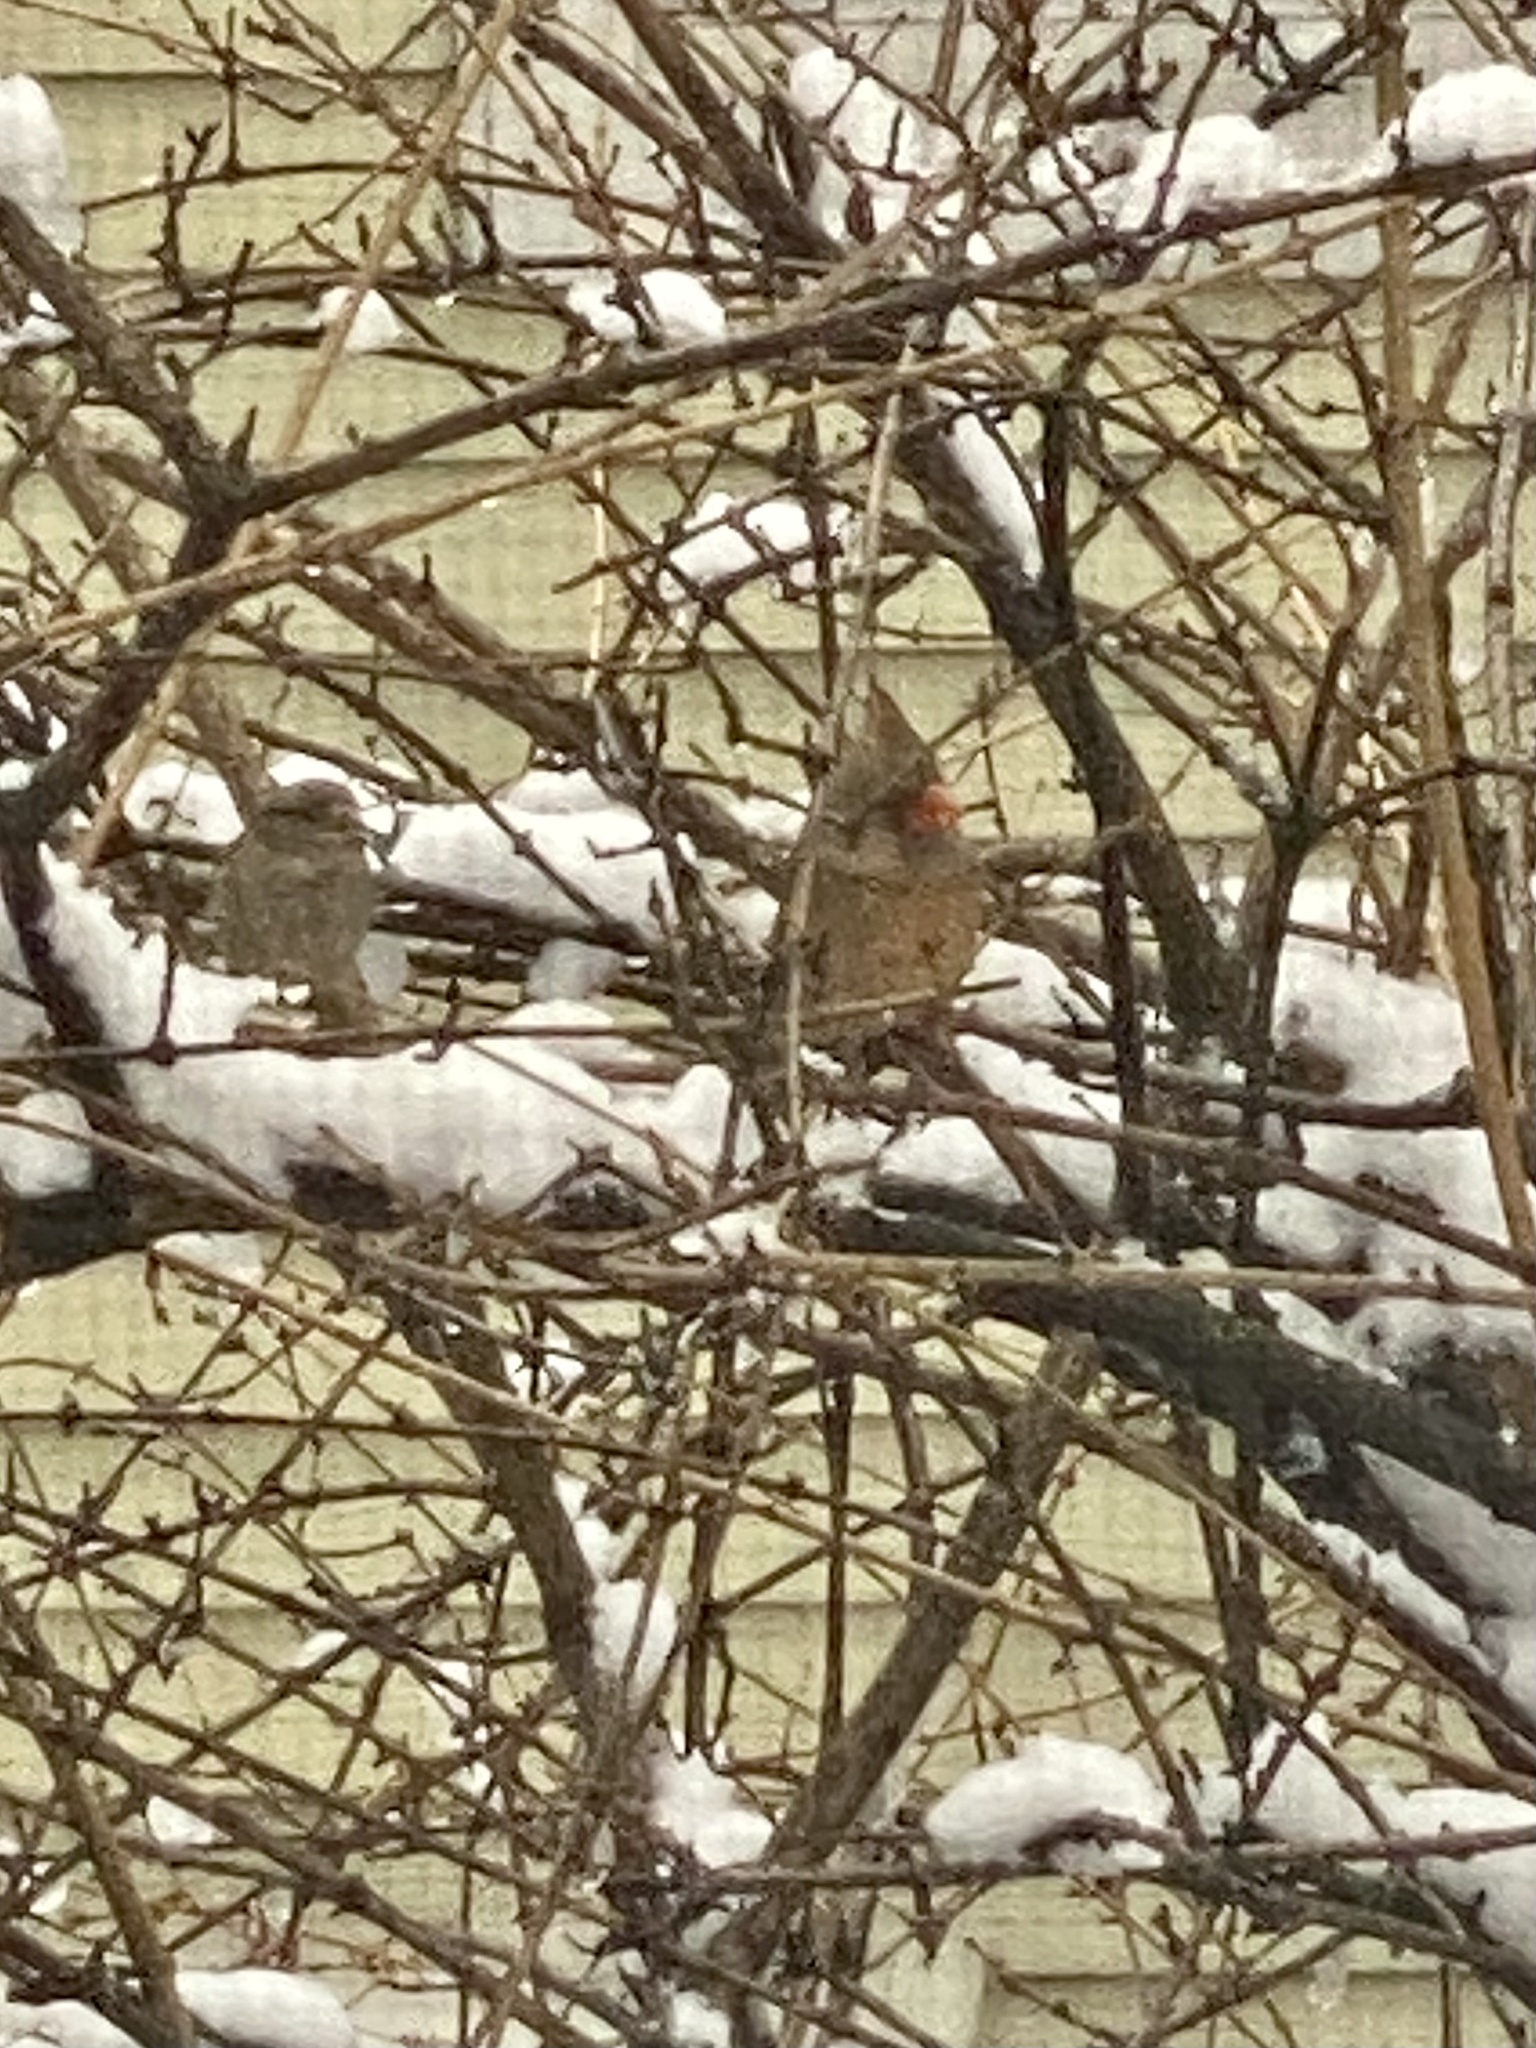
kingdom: Animalia
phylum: Chordata
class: Aves
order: Passeriformes
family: Cardinalidae
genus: Cardinalis
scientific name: Cardinalis cardinalis
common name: Northern cardinal
